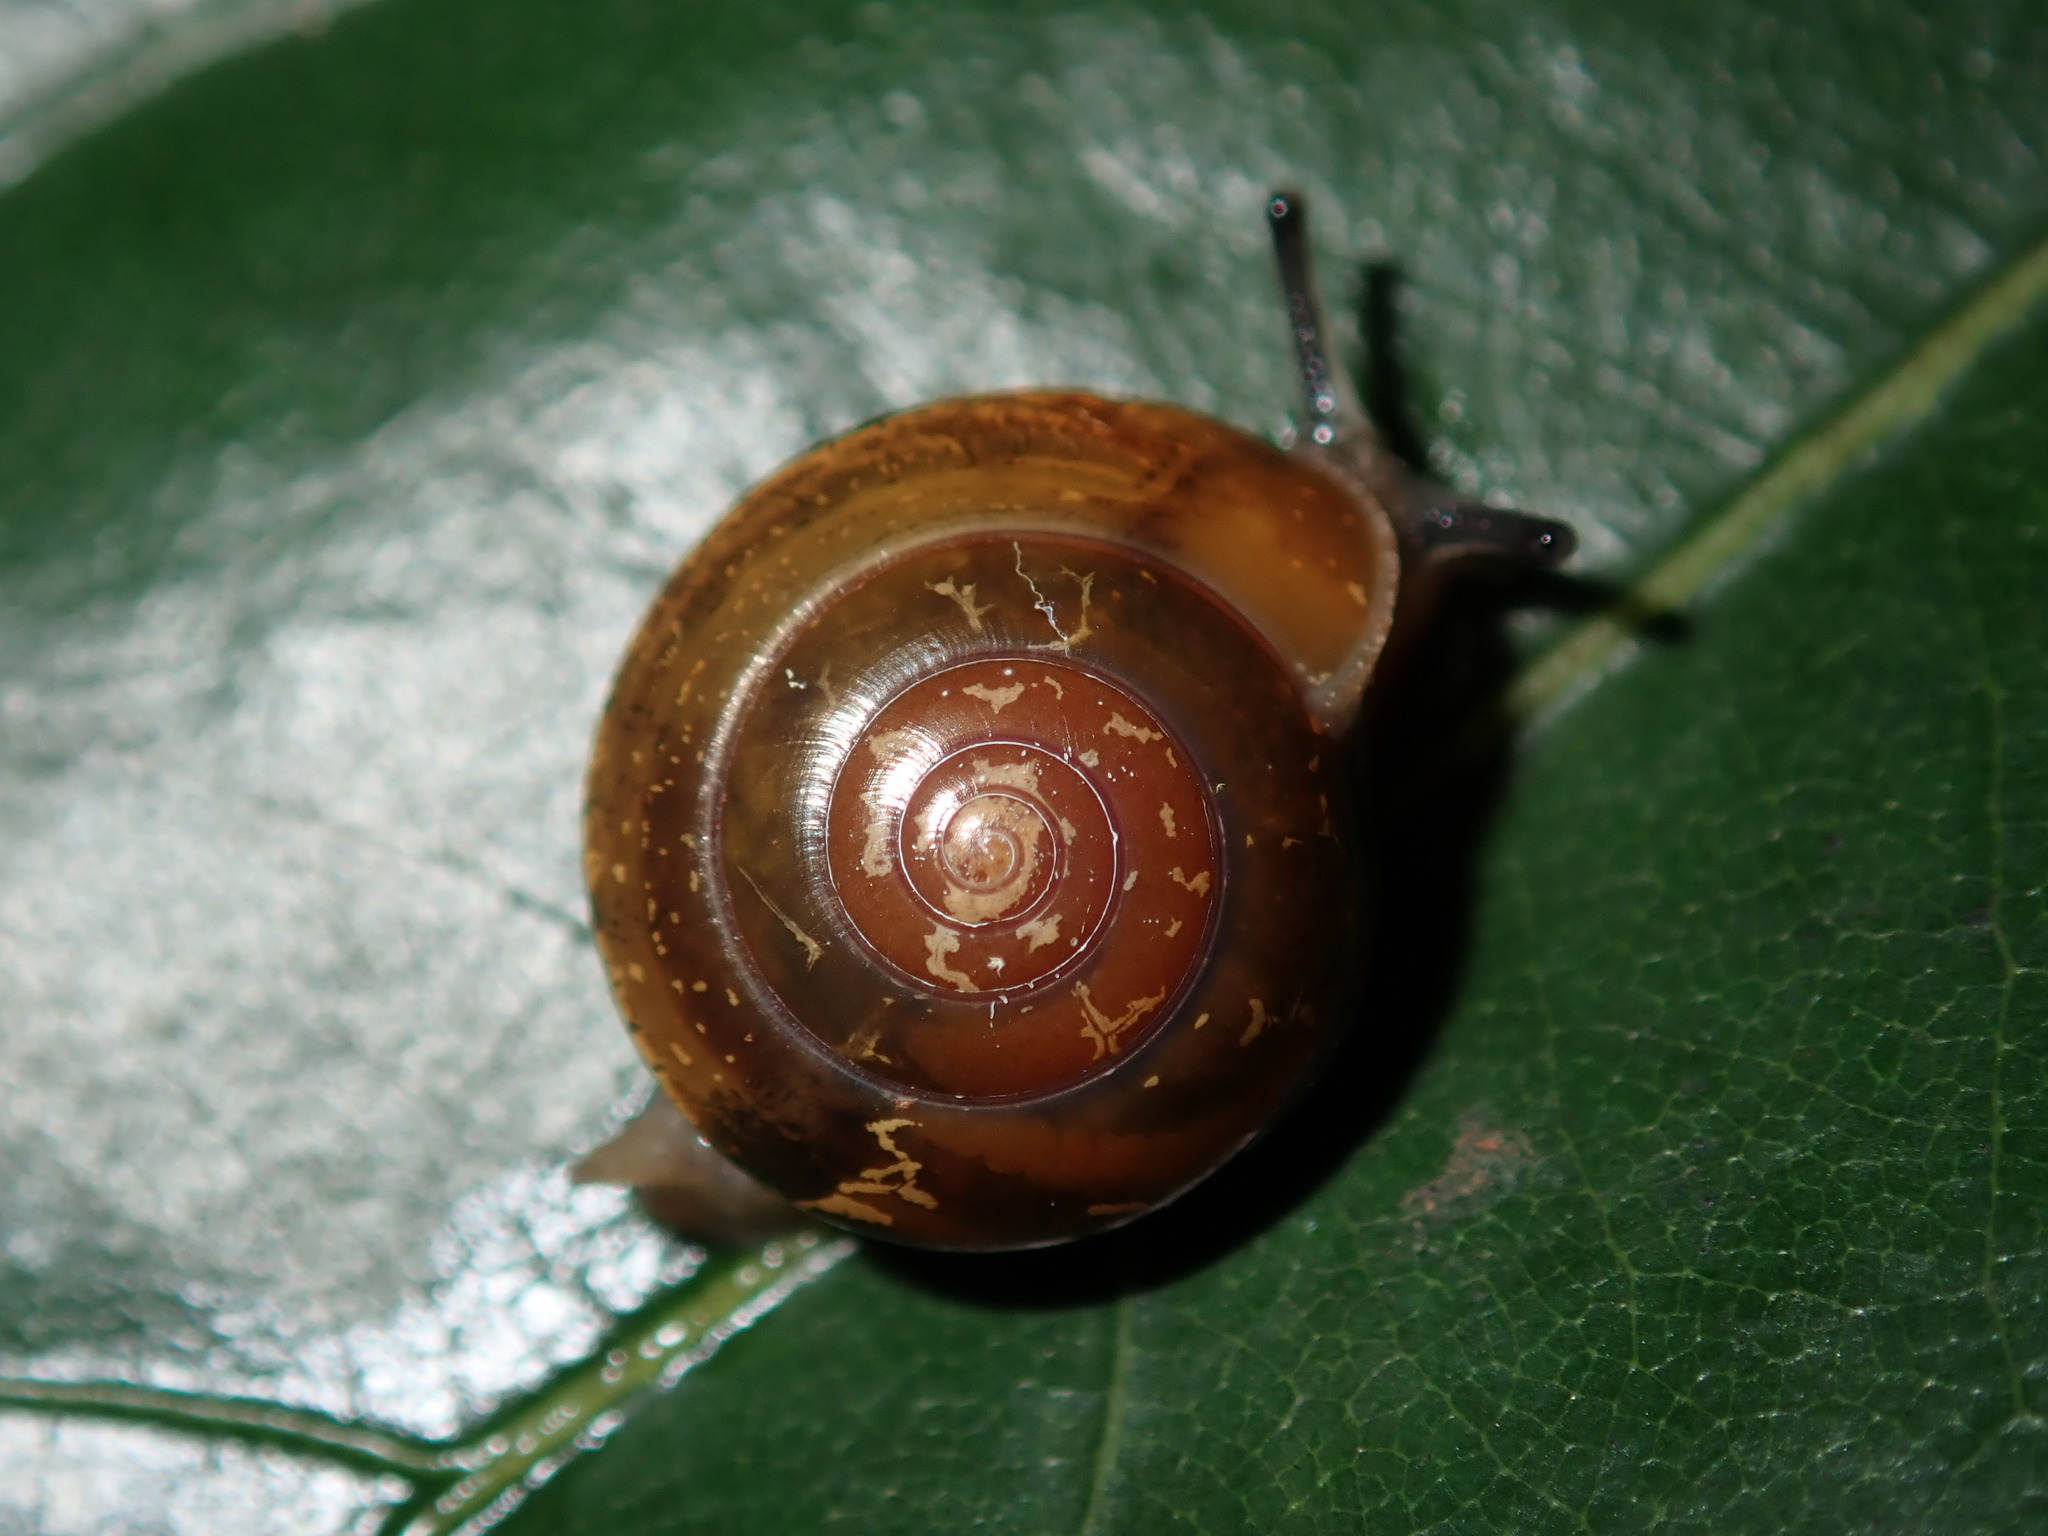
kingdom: Animalia
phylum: Mollusca
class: Gastropoda
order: Stylommatophora
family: Helicarionidae
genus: Nitor
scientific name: Nitor sheai
